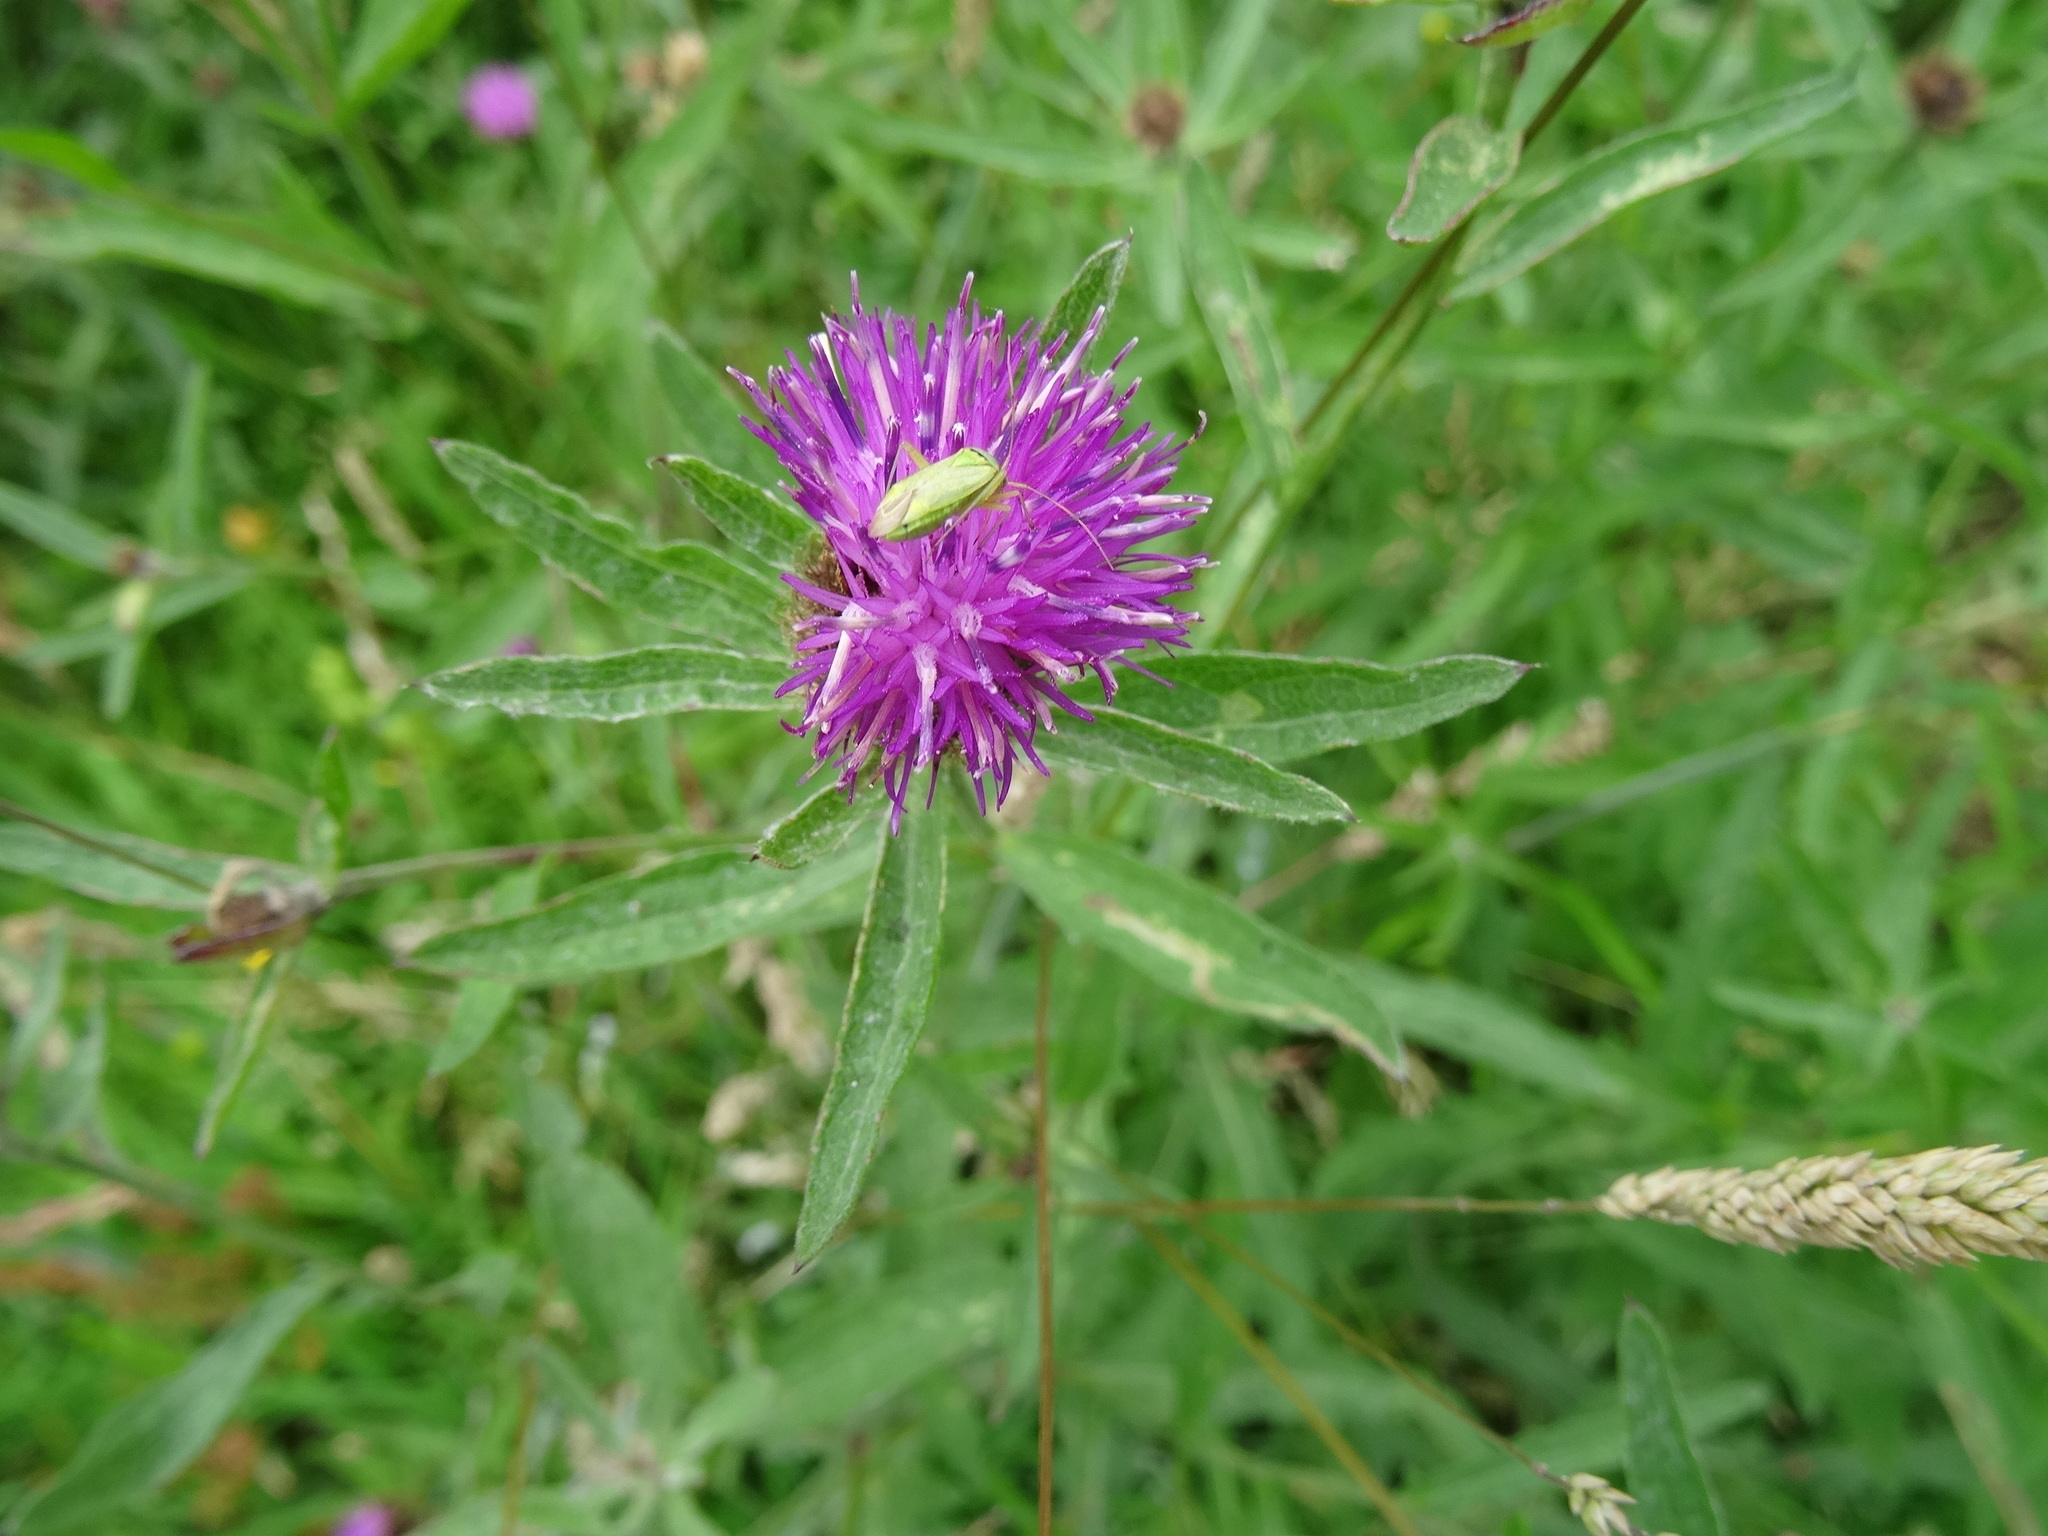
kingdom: Plantae
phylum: Tracheophyta
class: Magnoliopsida
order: Asterales
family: Asteraceae
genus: Centaurea
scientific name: Centaurea nigra
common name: Lesser knapweed
